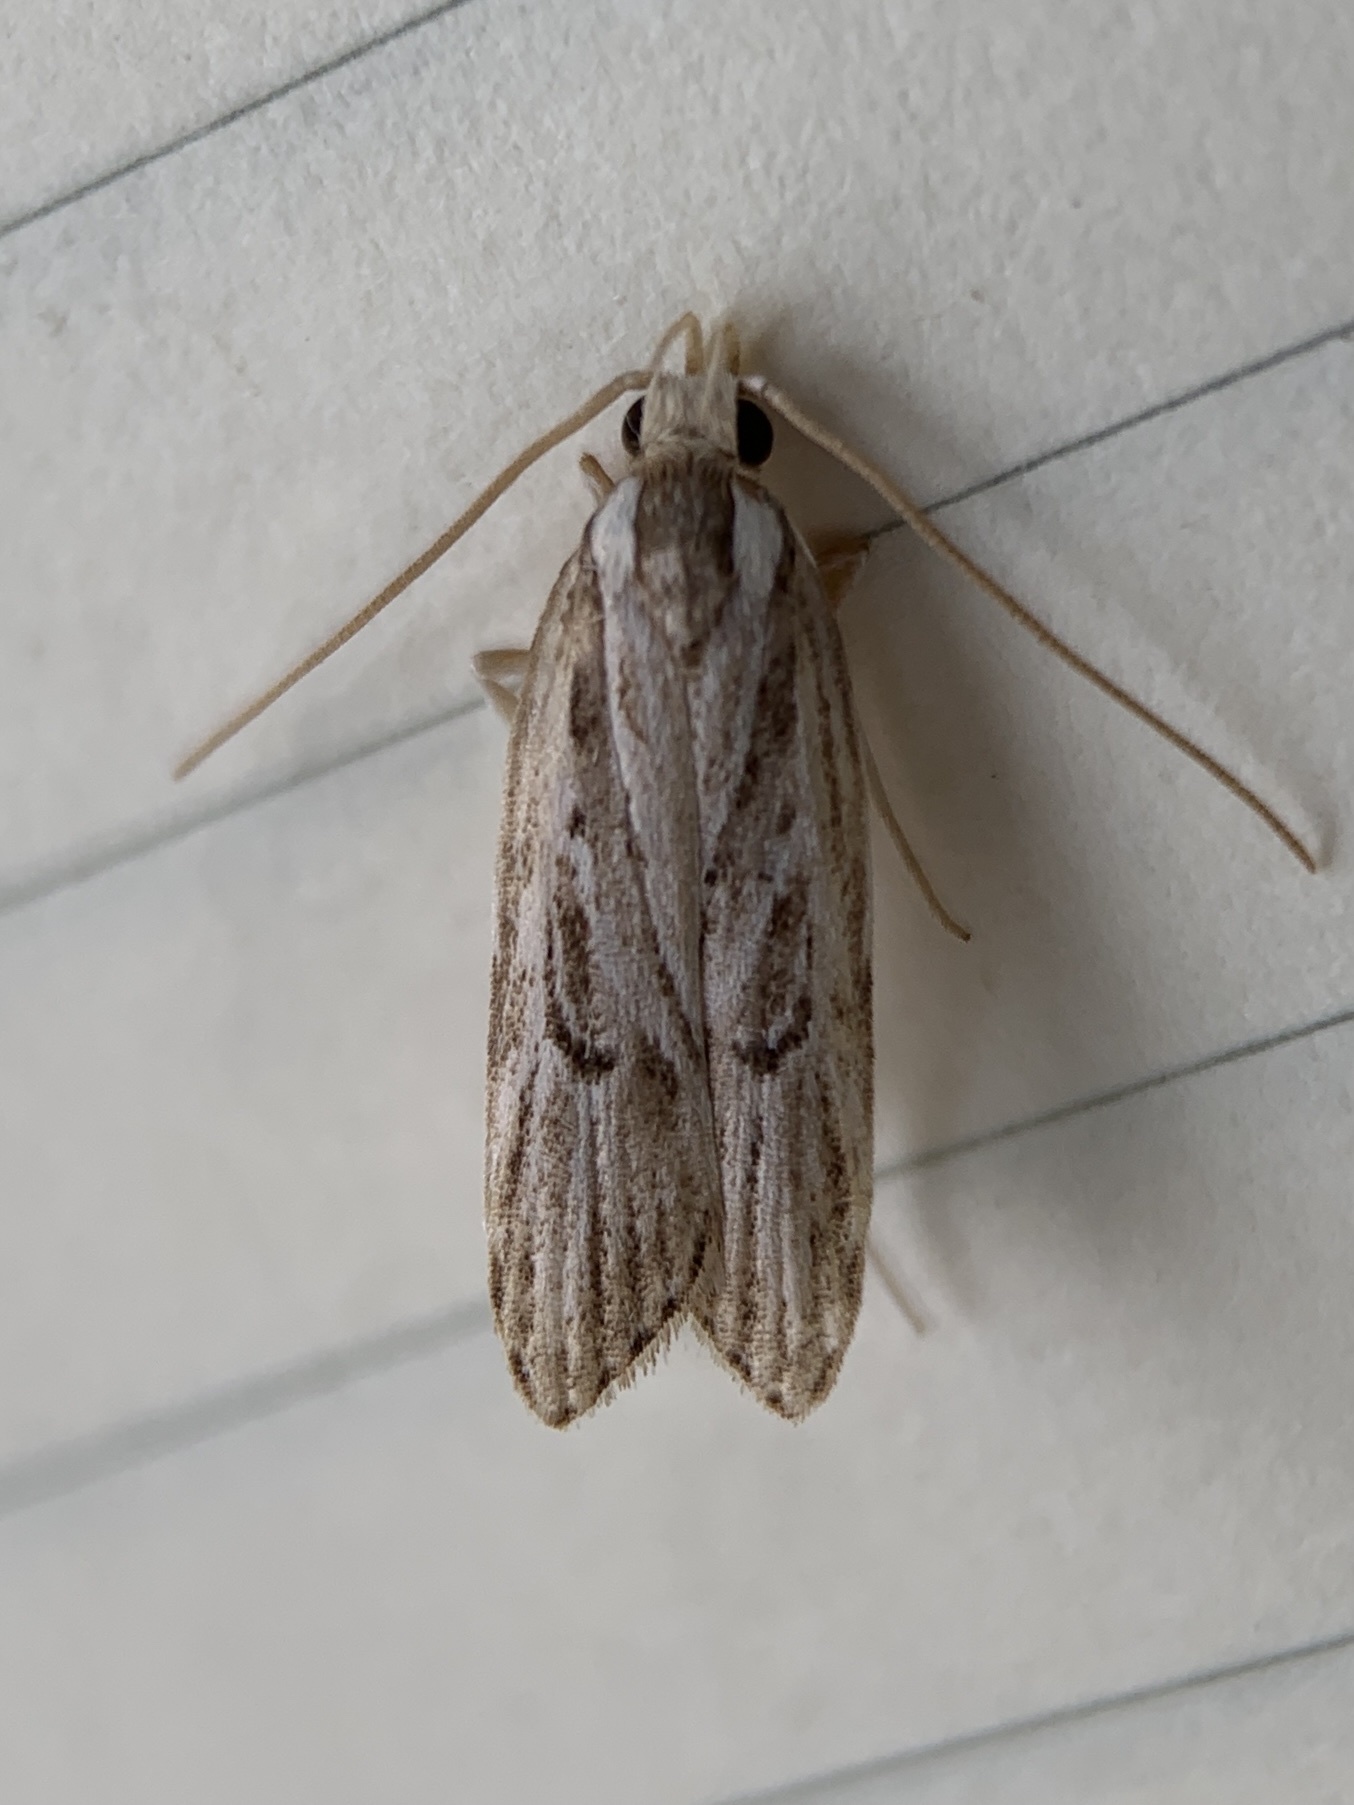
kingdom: Animalia
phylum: Arthropoda
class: Insecta
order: Lepidoptera
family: Depressariidae
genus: Eupragia
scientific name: Eupragia hospita
